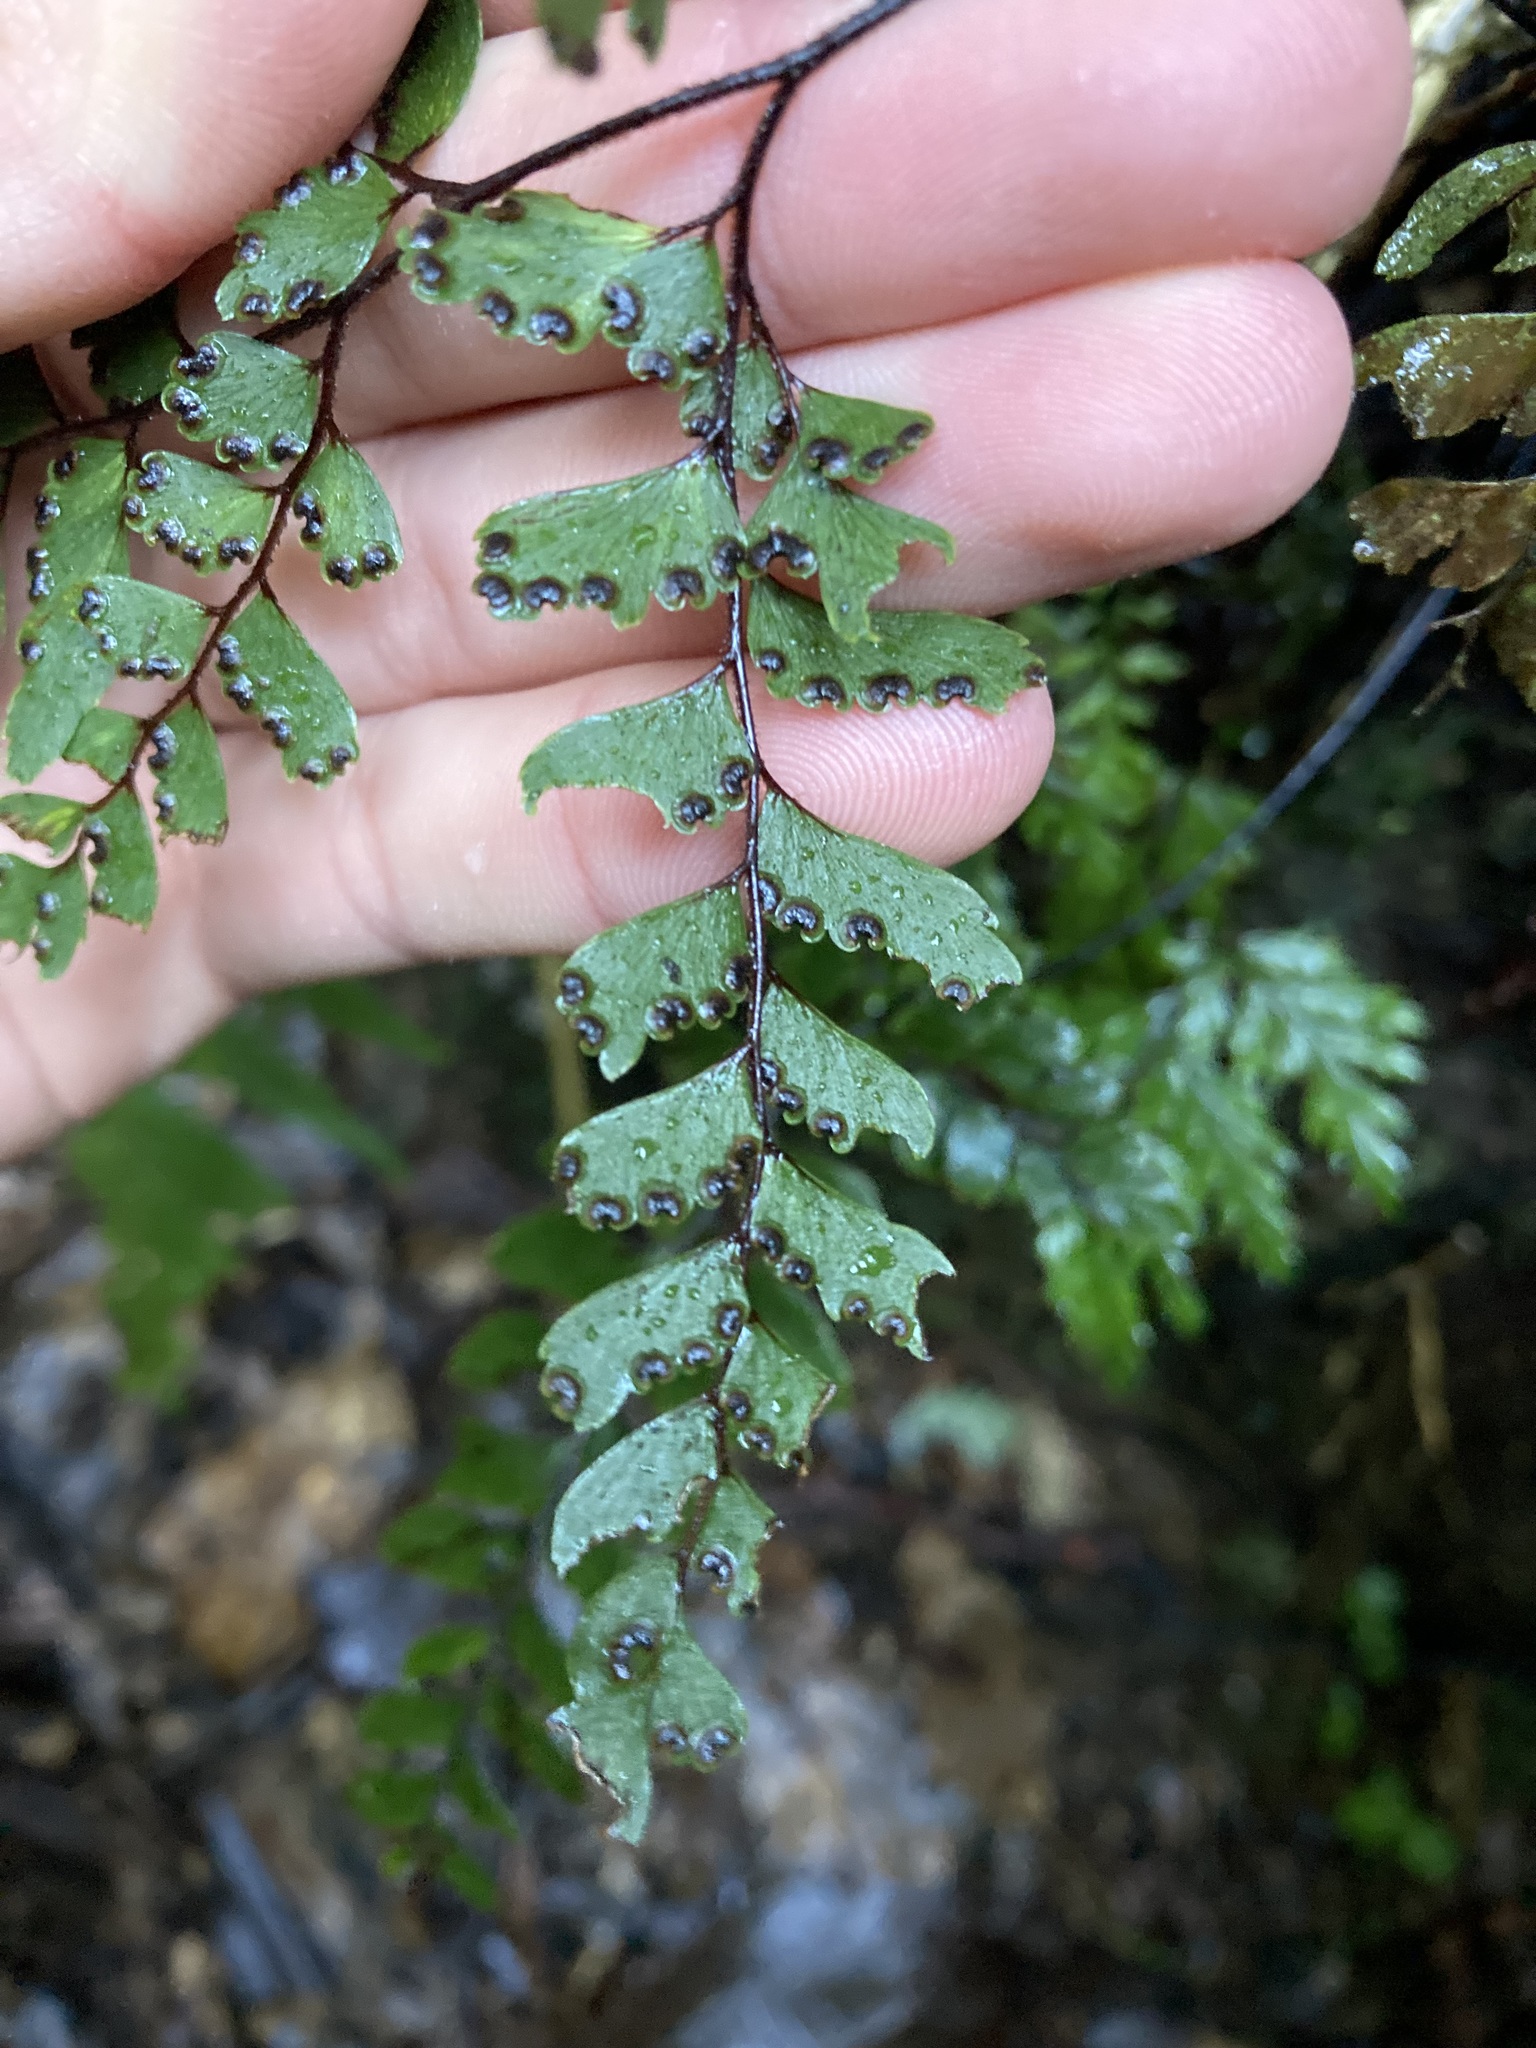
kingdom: Plantae
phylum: Tracheophyta
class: Polypodiopsida
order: Polypodiales
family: Pteridaceae
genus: Adiantum
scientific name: Adiantum fulvum
